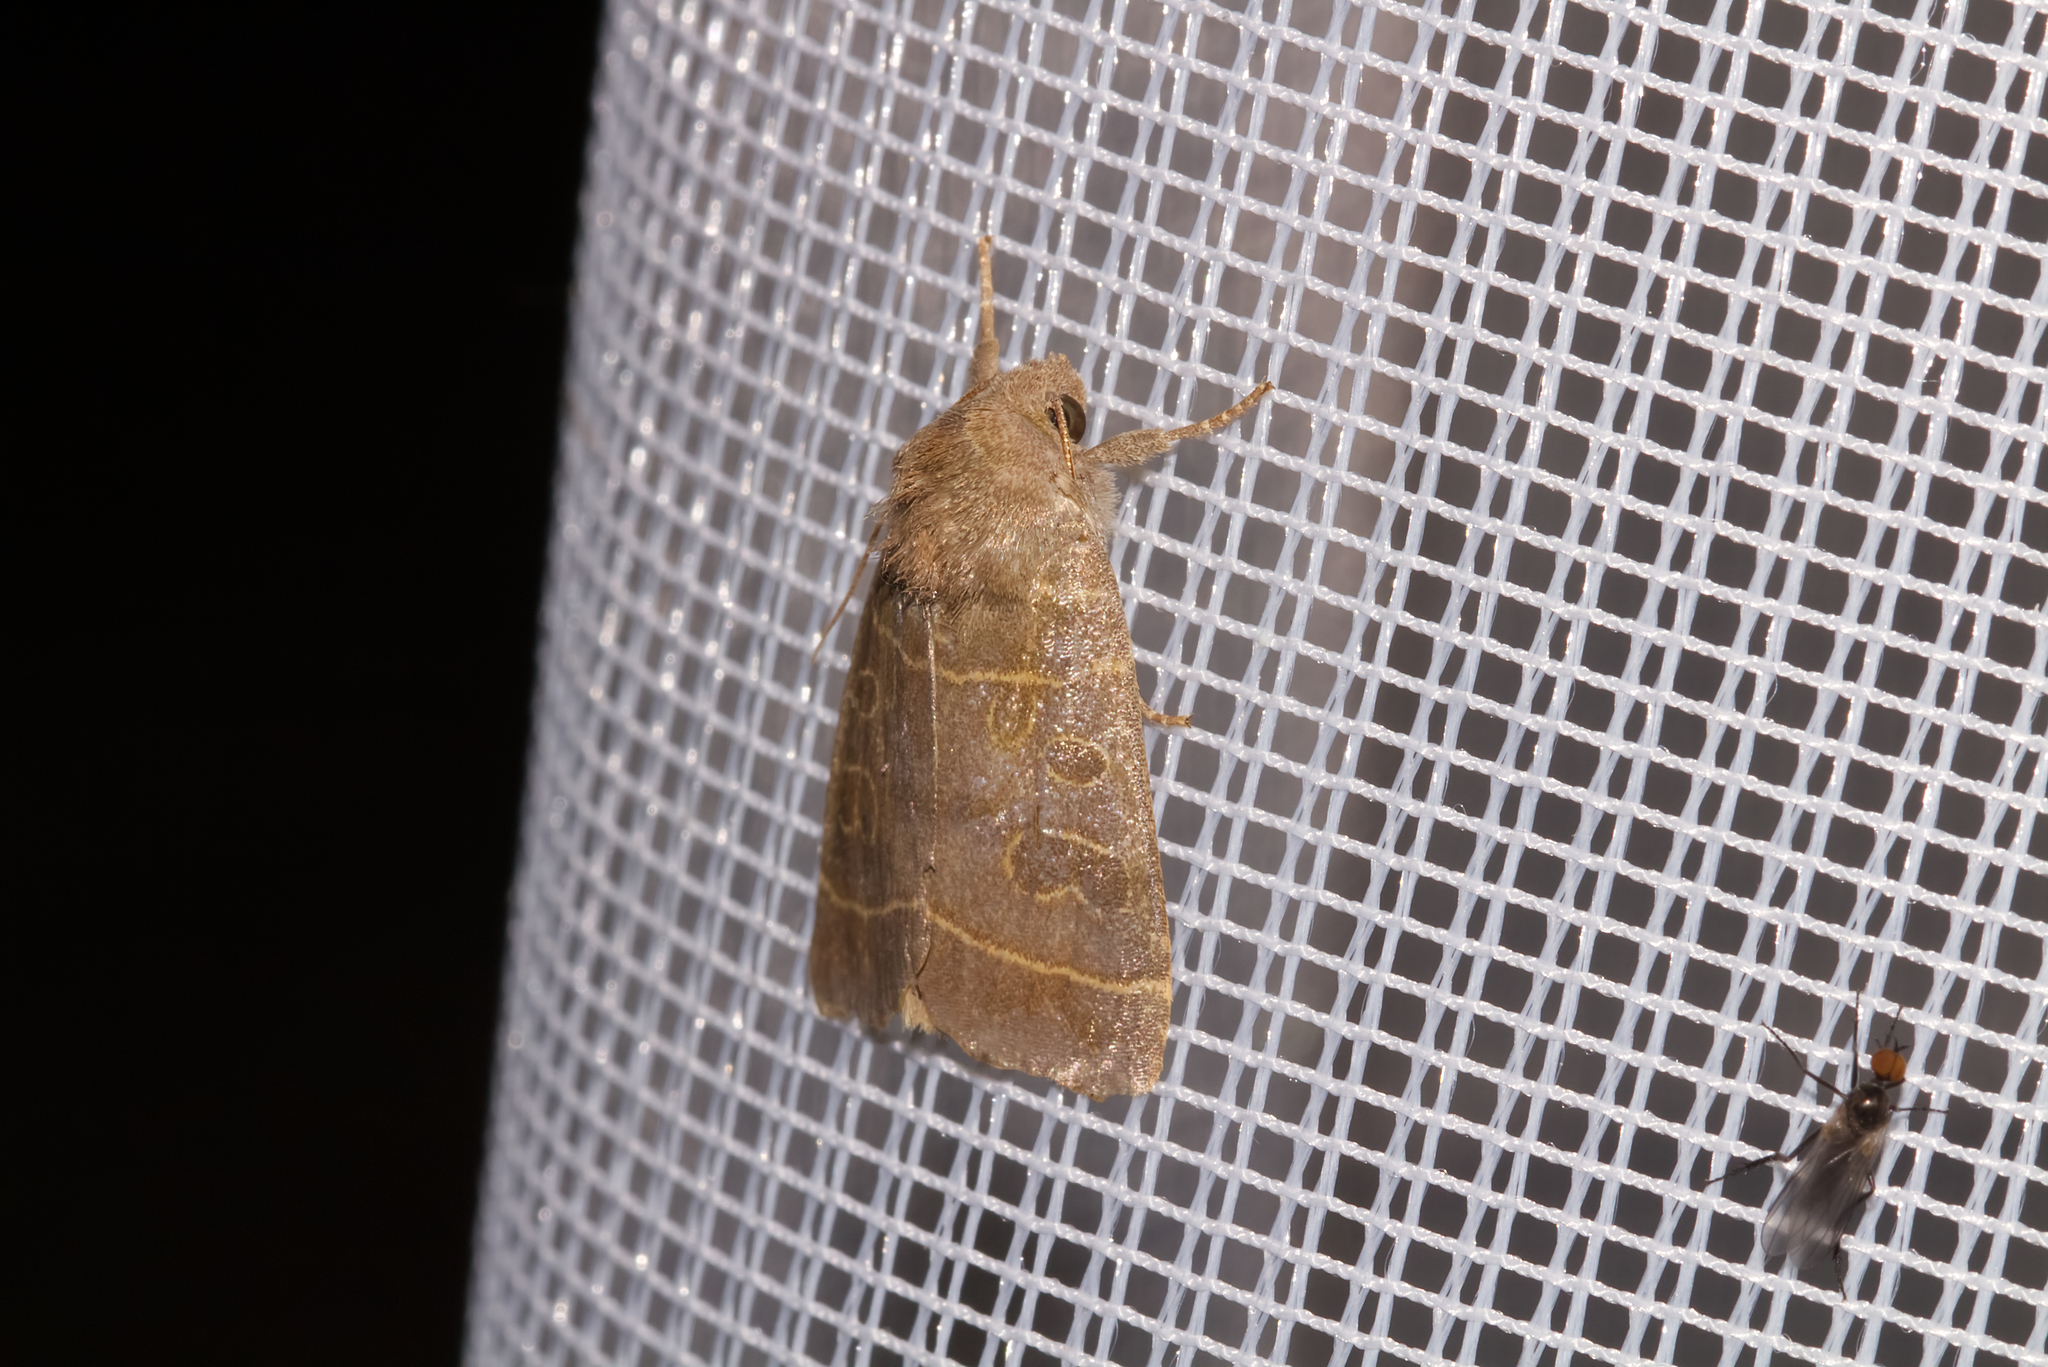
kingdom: Animalia
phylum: Arthropoda
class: Insecta
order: Lepidoptera
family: Noctuidae
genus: Ipimorpha
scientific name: Ipimorpha subtusa
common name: Olive
